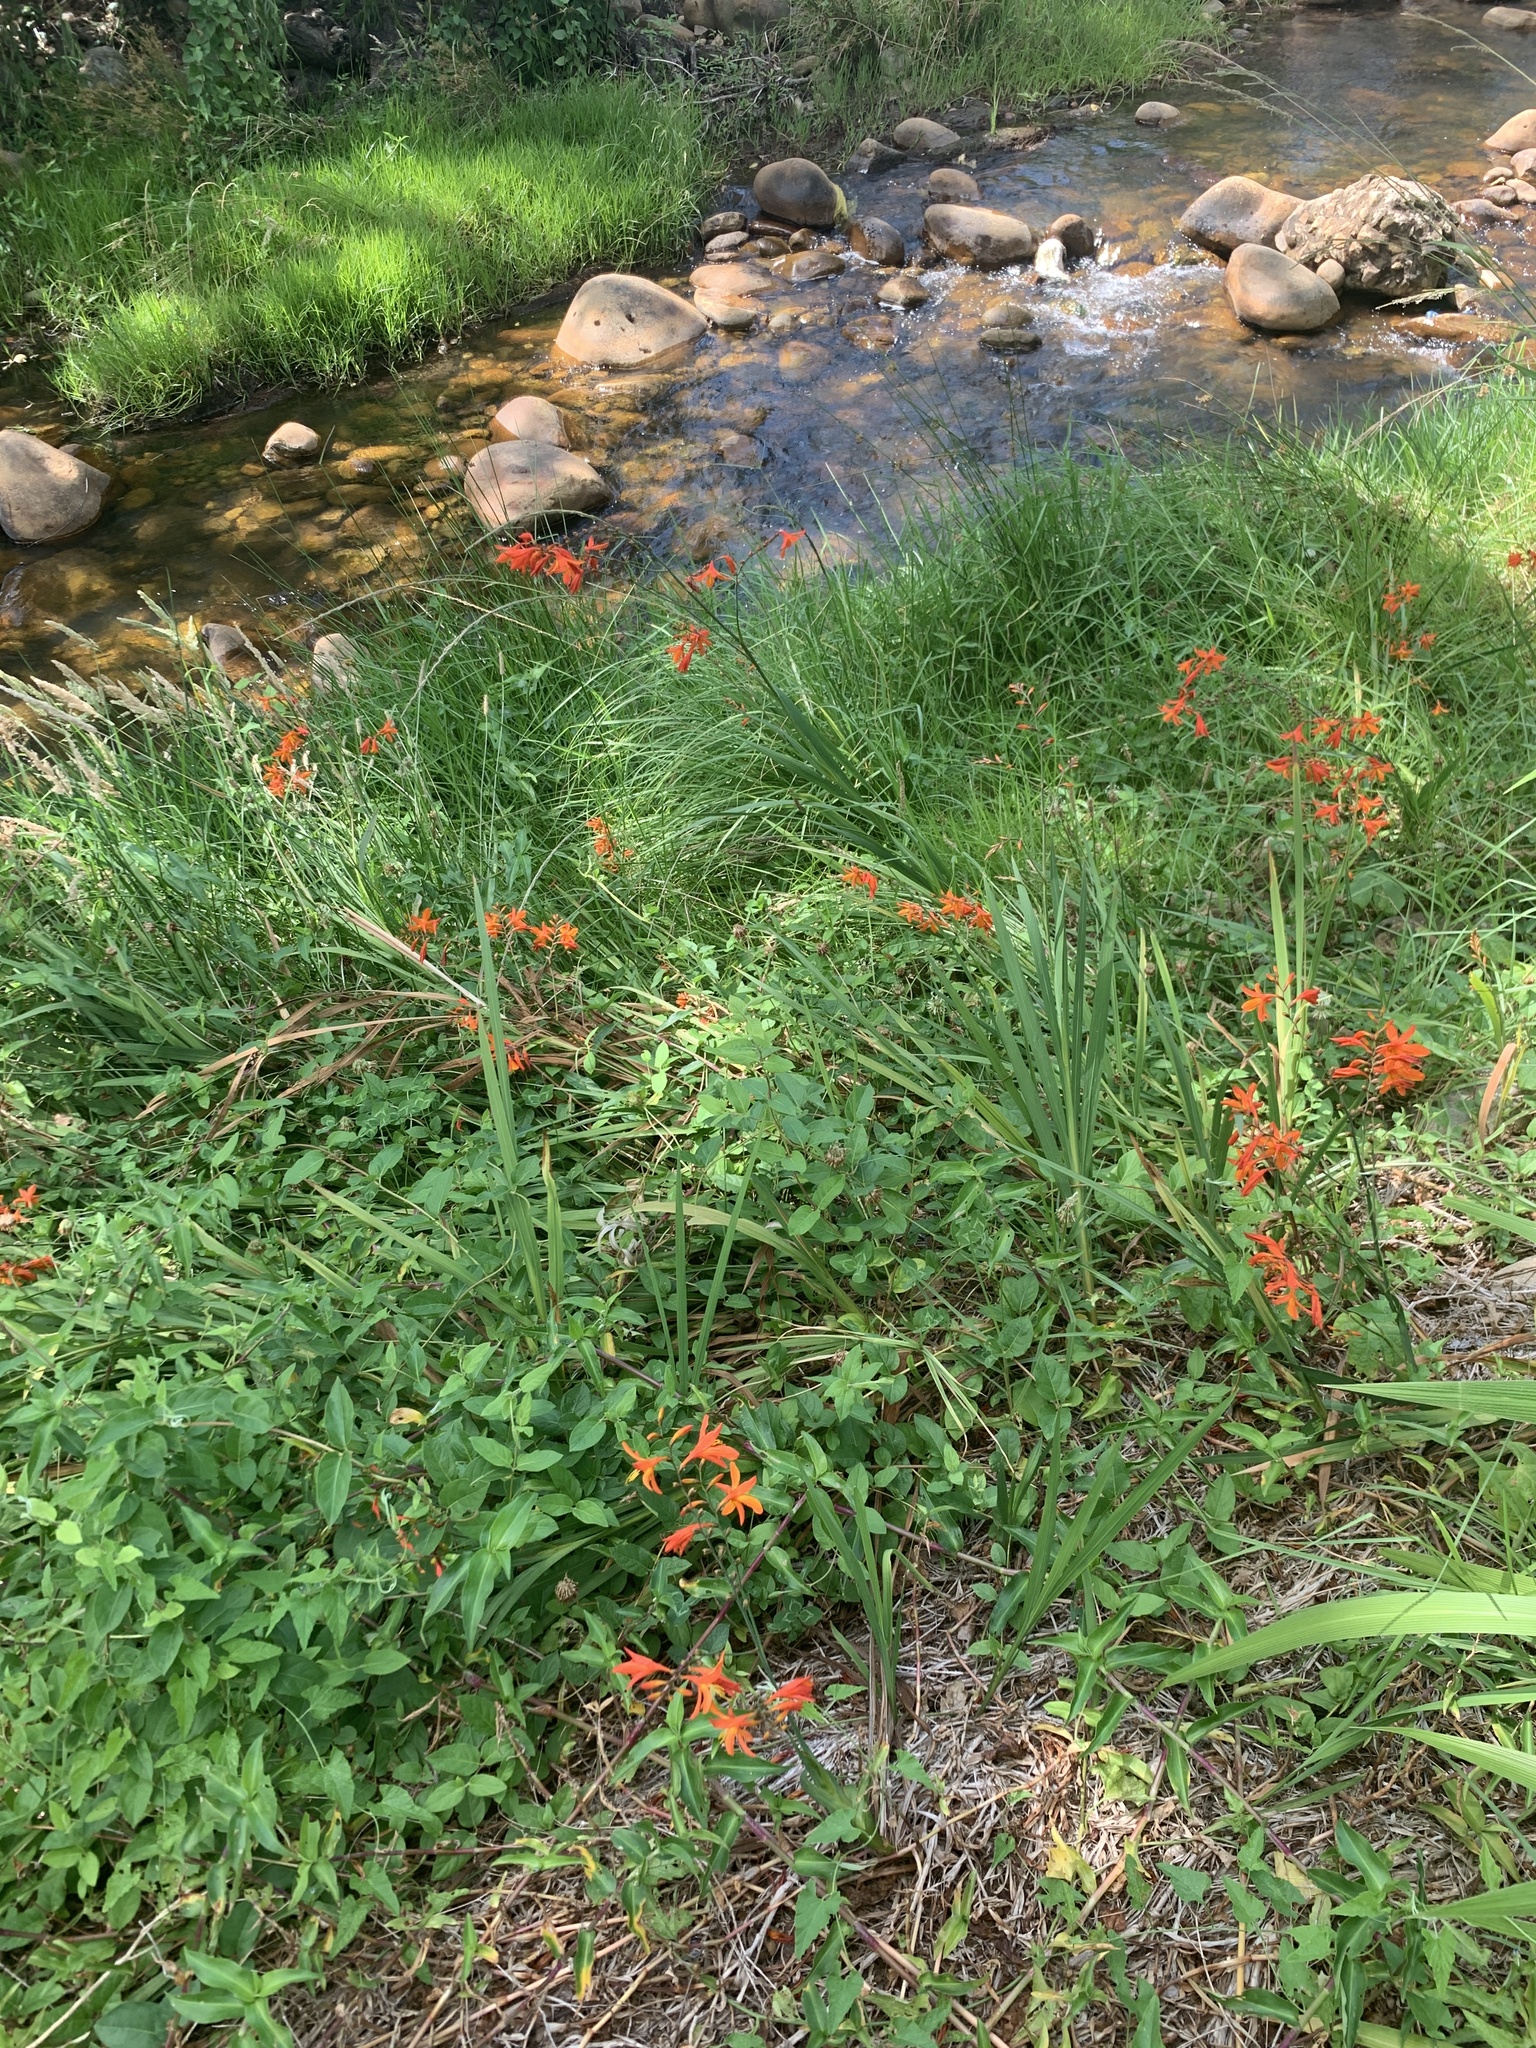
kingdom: Plantae
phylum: Tracheophyta
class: Liliopsida
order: Asparagales
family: Iridaceae
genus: Crocosmia
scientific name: Crocosmia crocosmiiflora
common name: Montbretia
